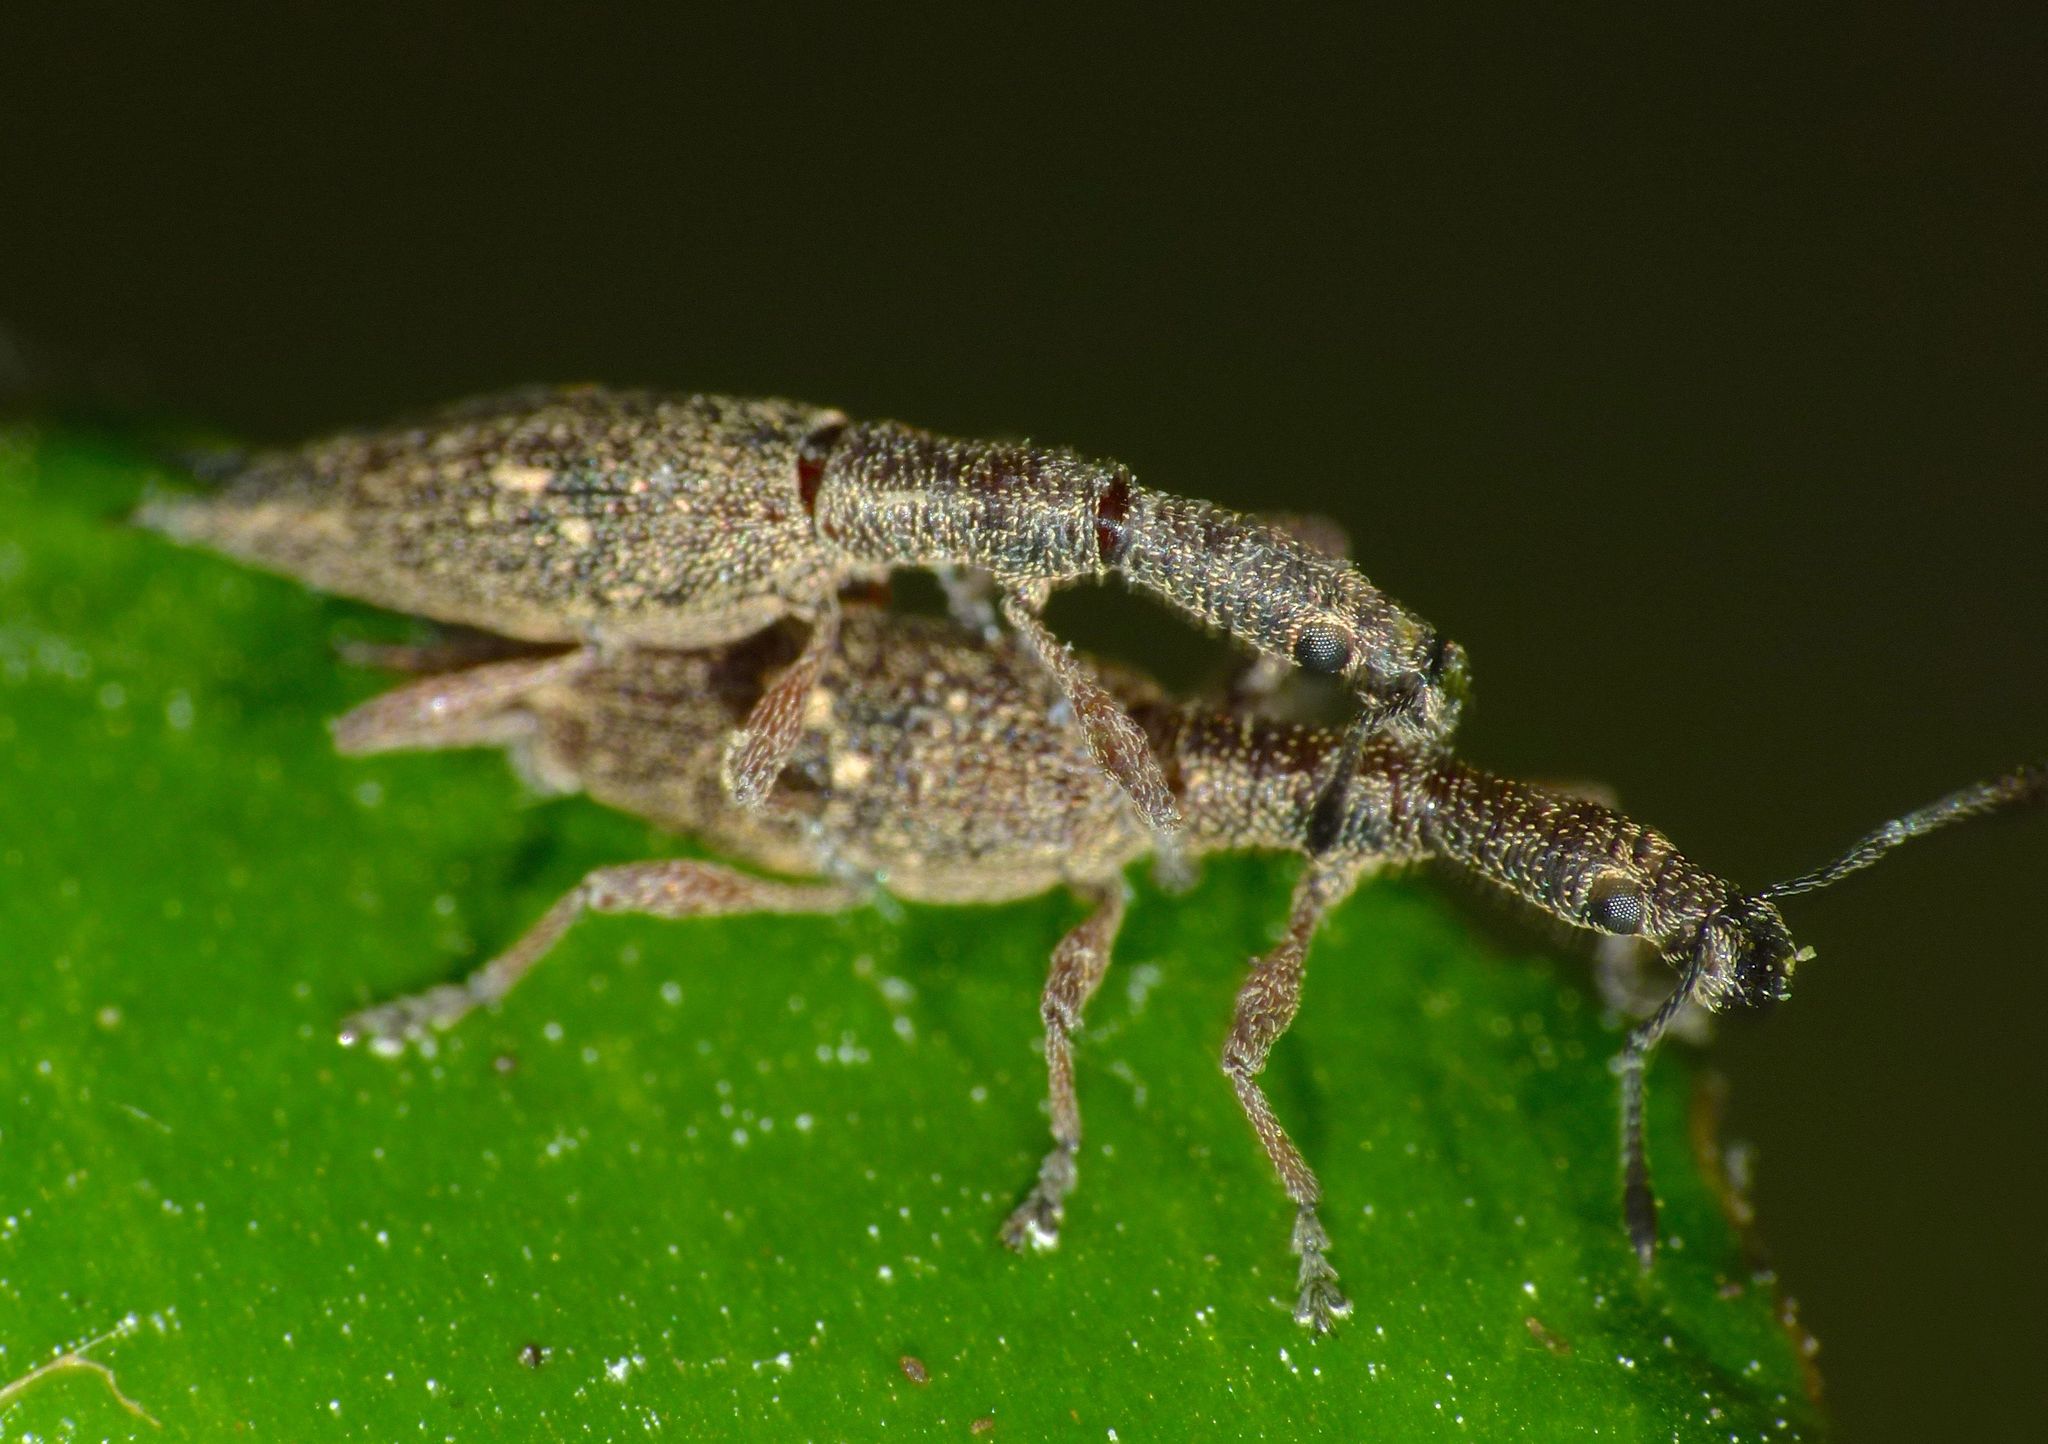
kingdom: Animalia
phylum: Arthropoda
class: Insecta
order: Coleoptera
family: Curculionidae
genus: Rhadinosomus
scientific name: Rhadinosomus acuminatus
